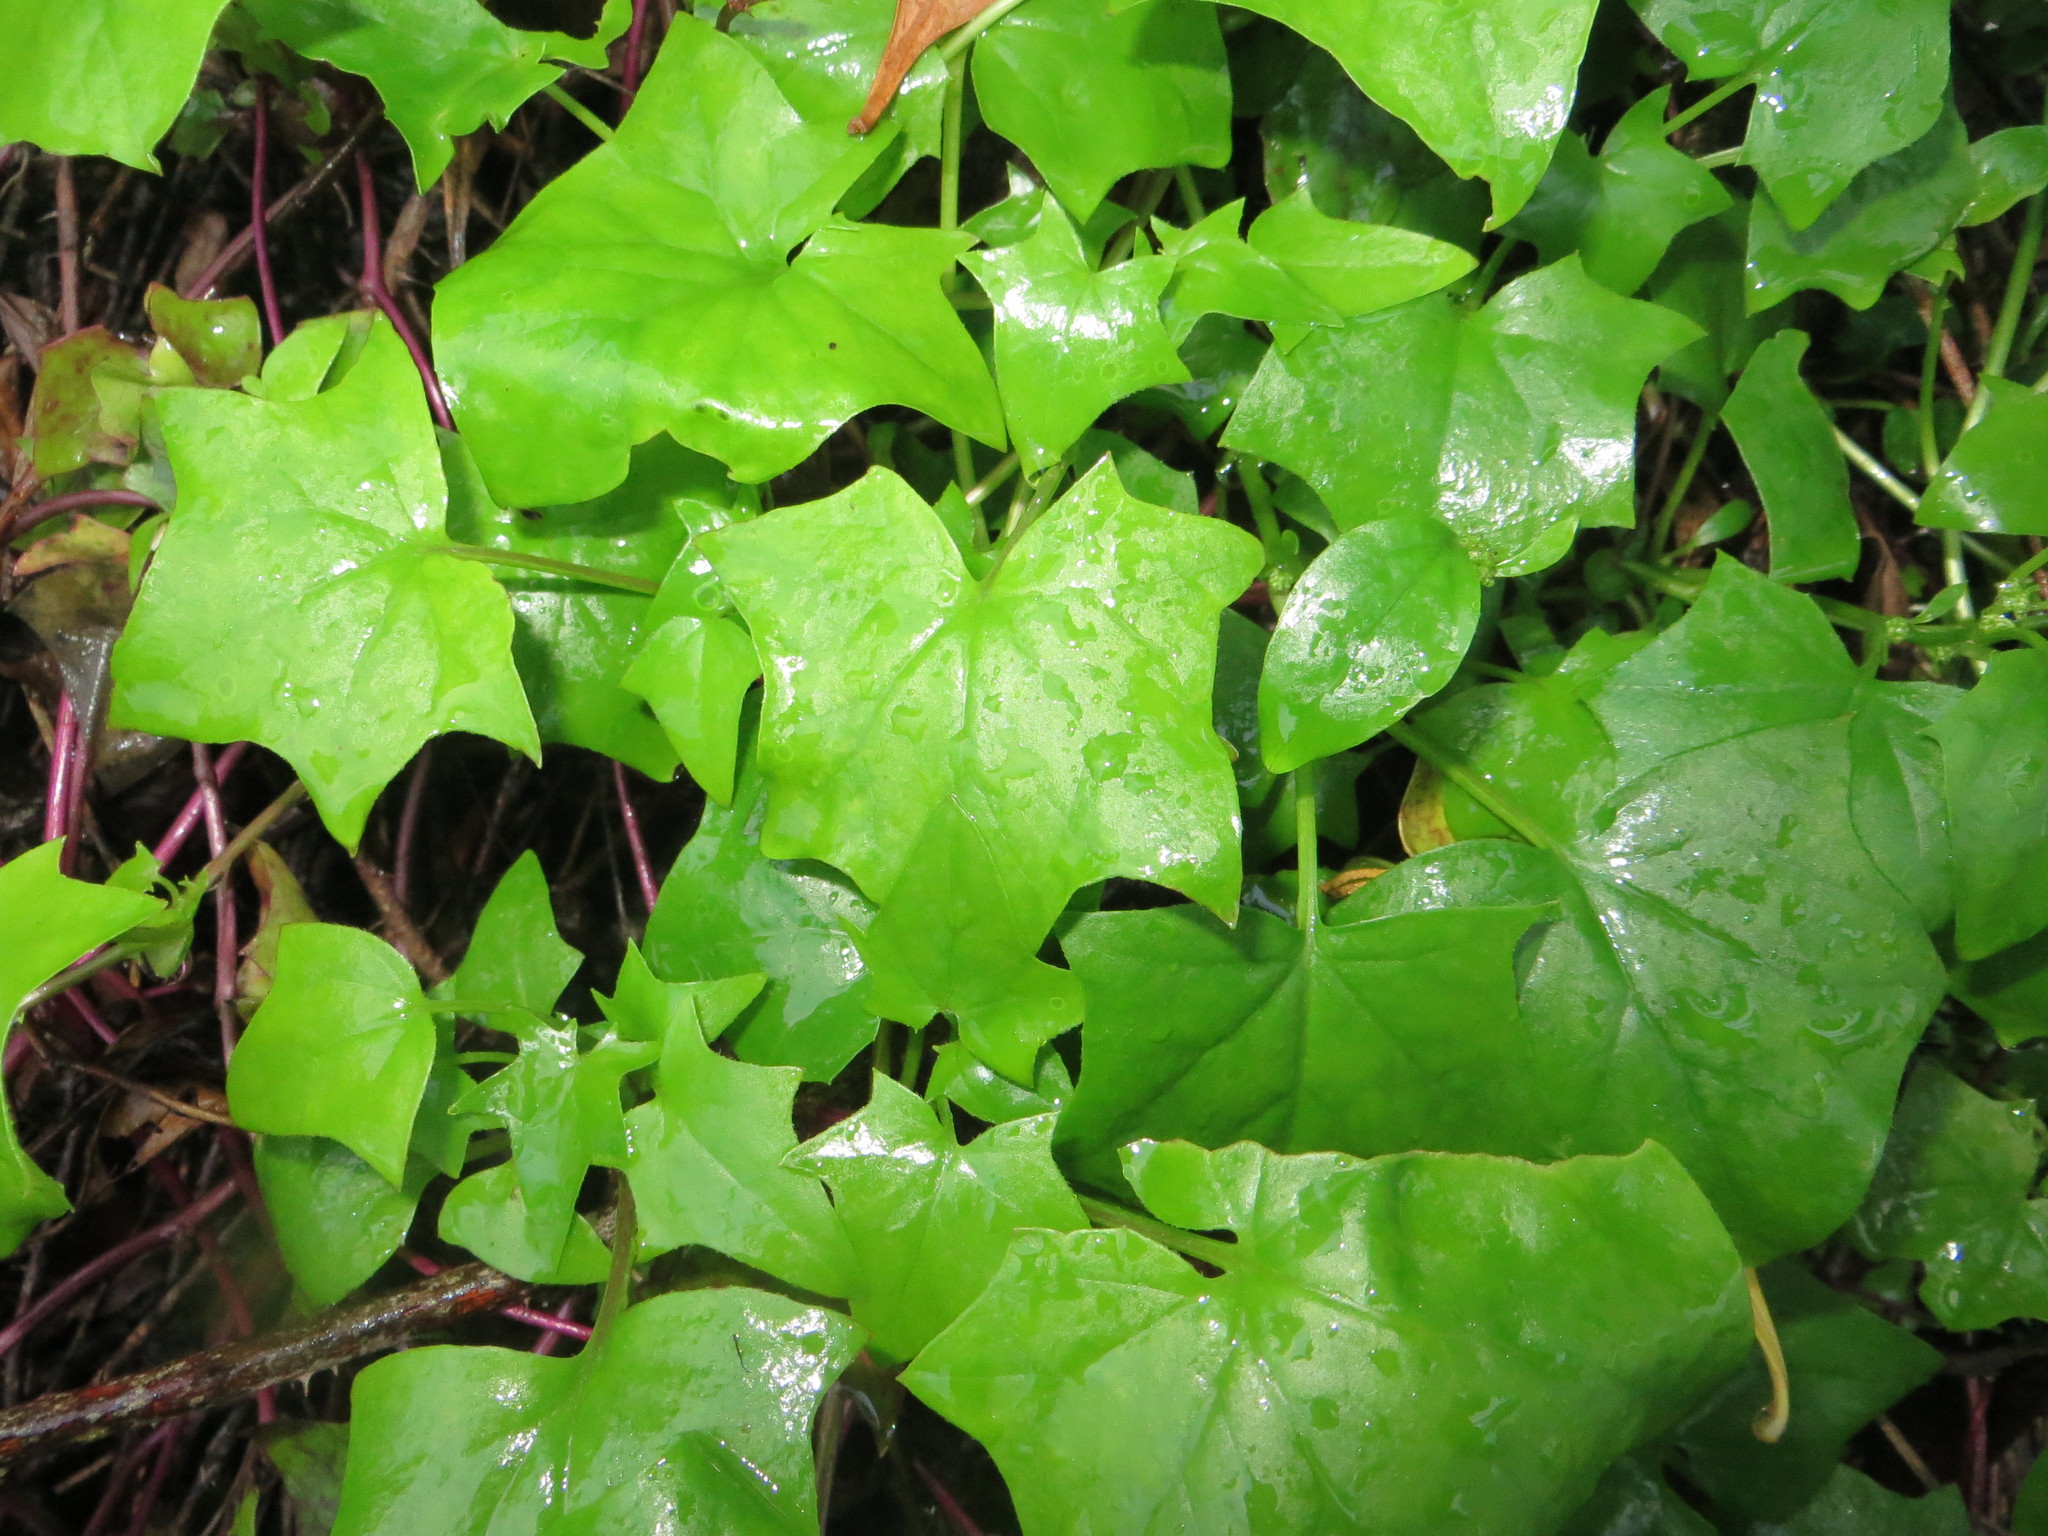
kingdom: Plantae
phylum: Tracheophyta
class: Magnoliopsida
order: Asterales
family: Asteraceae
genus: Delairea
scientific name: Delairea odorata
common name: Cape-ivy
